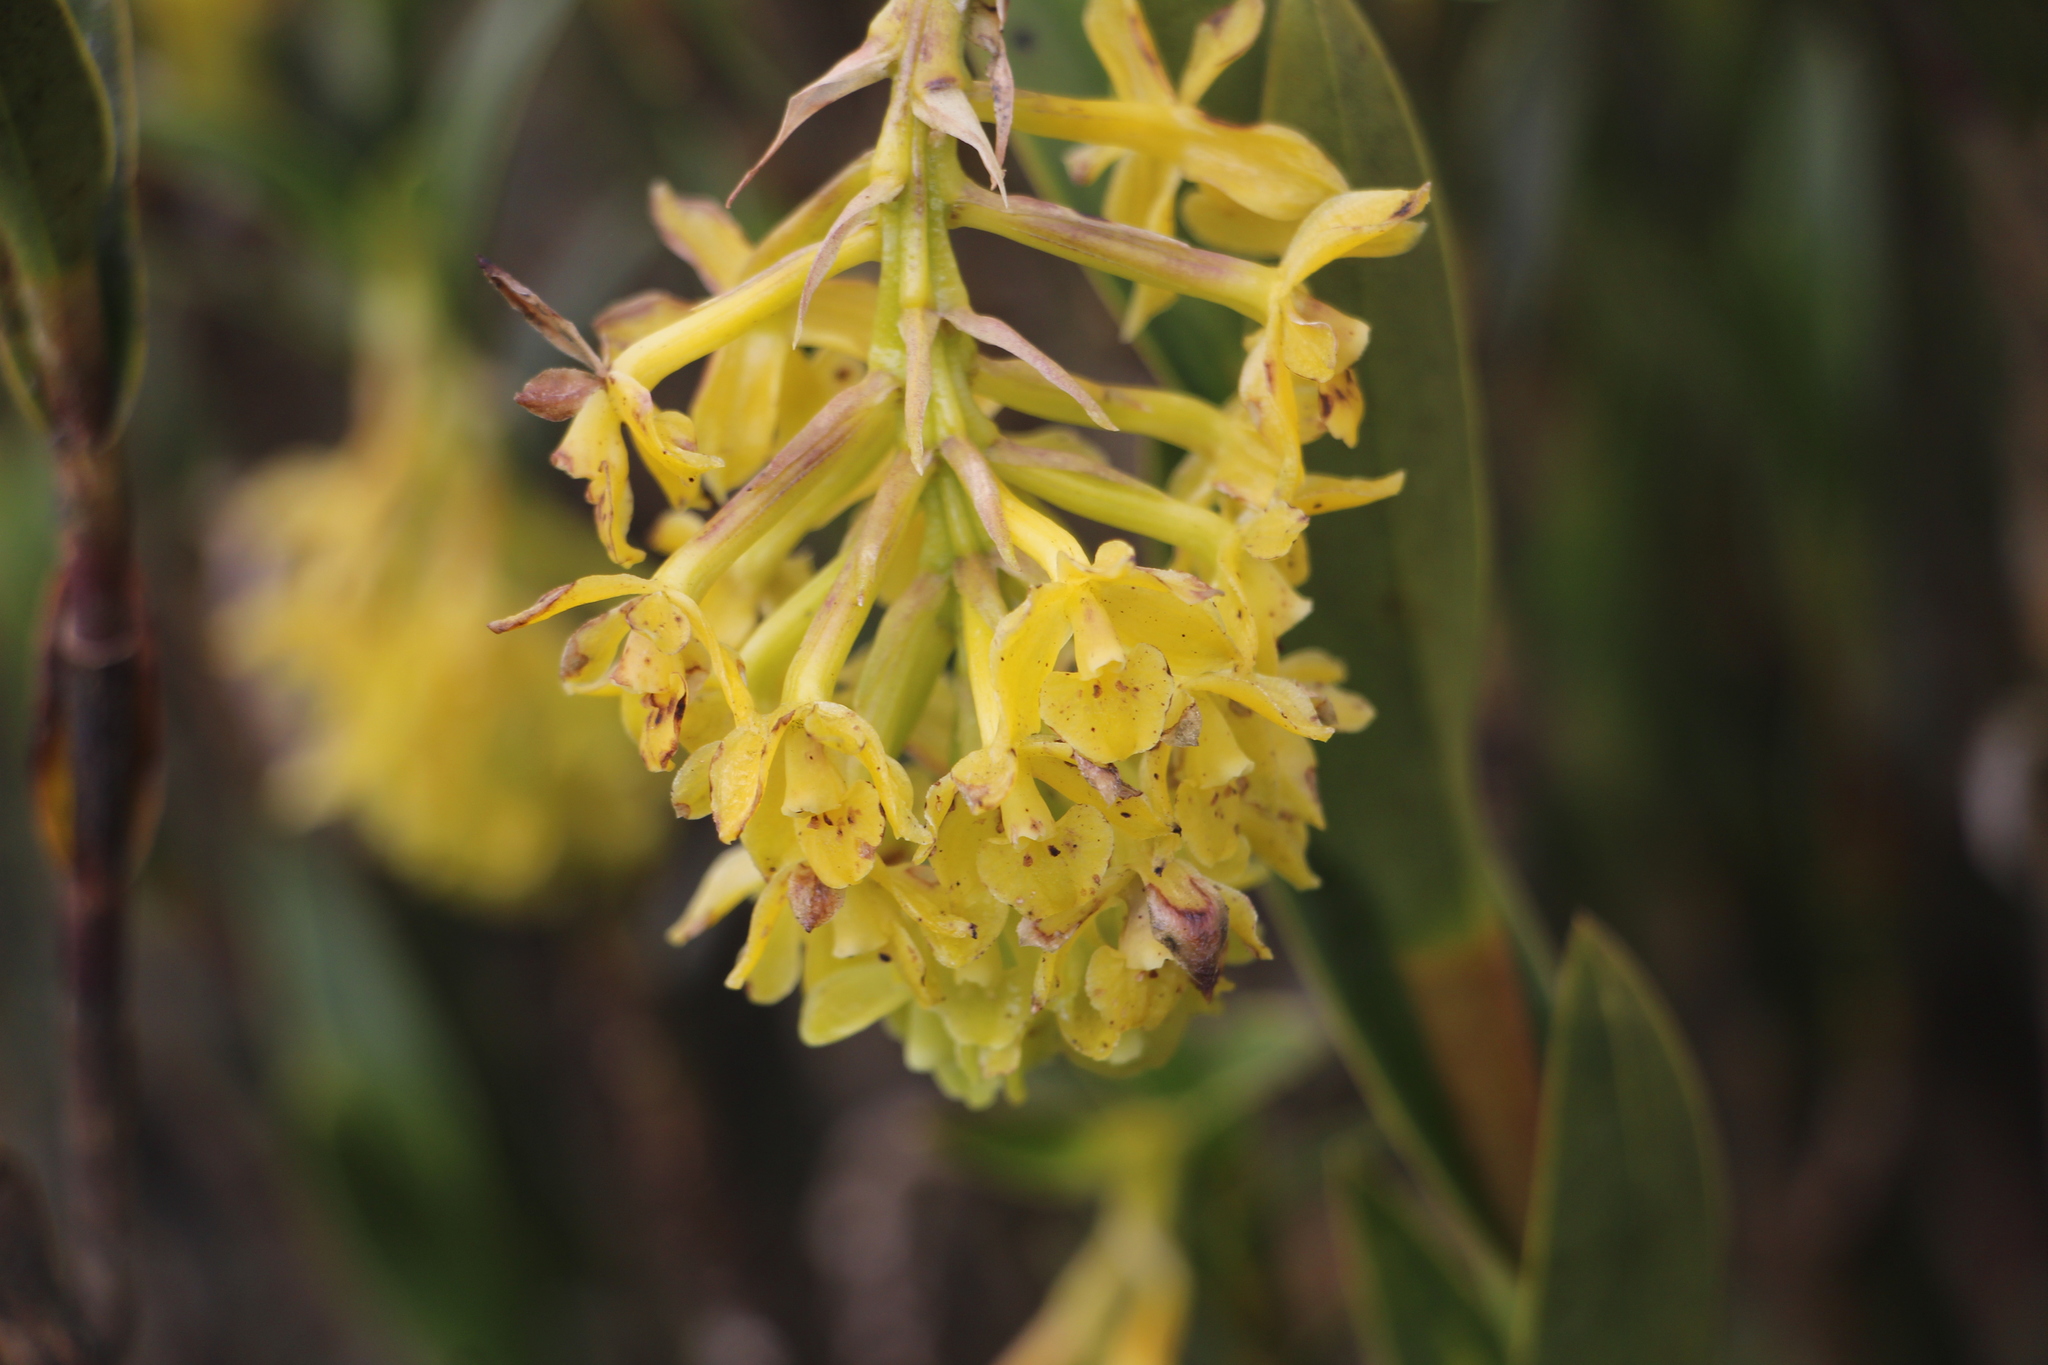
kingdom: Plantae
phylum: Tracheophyta
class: Liliopsida
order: Asparagales
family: Orchidaceae
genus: Epidendrum
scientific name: Epidendrum zipaquiranum
